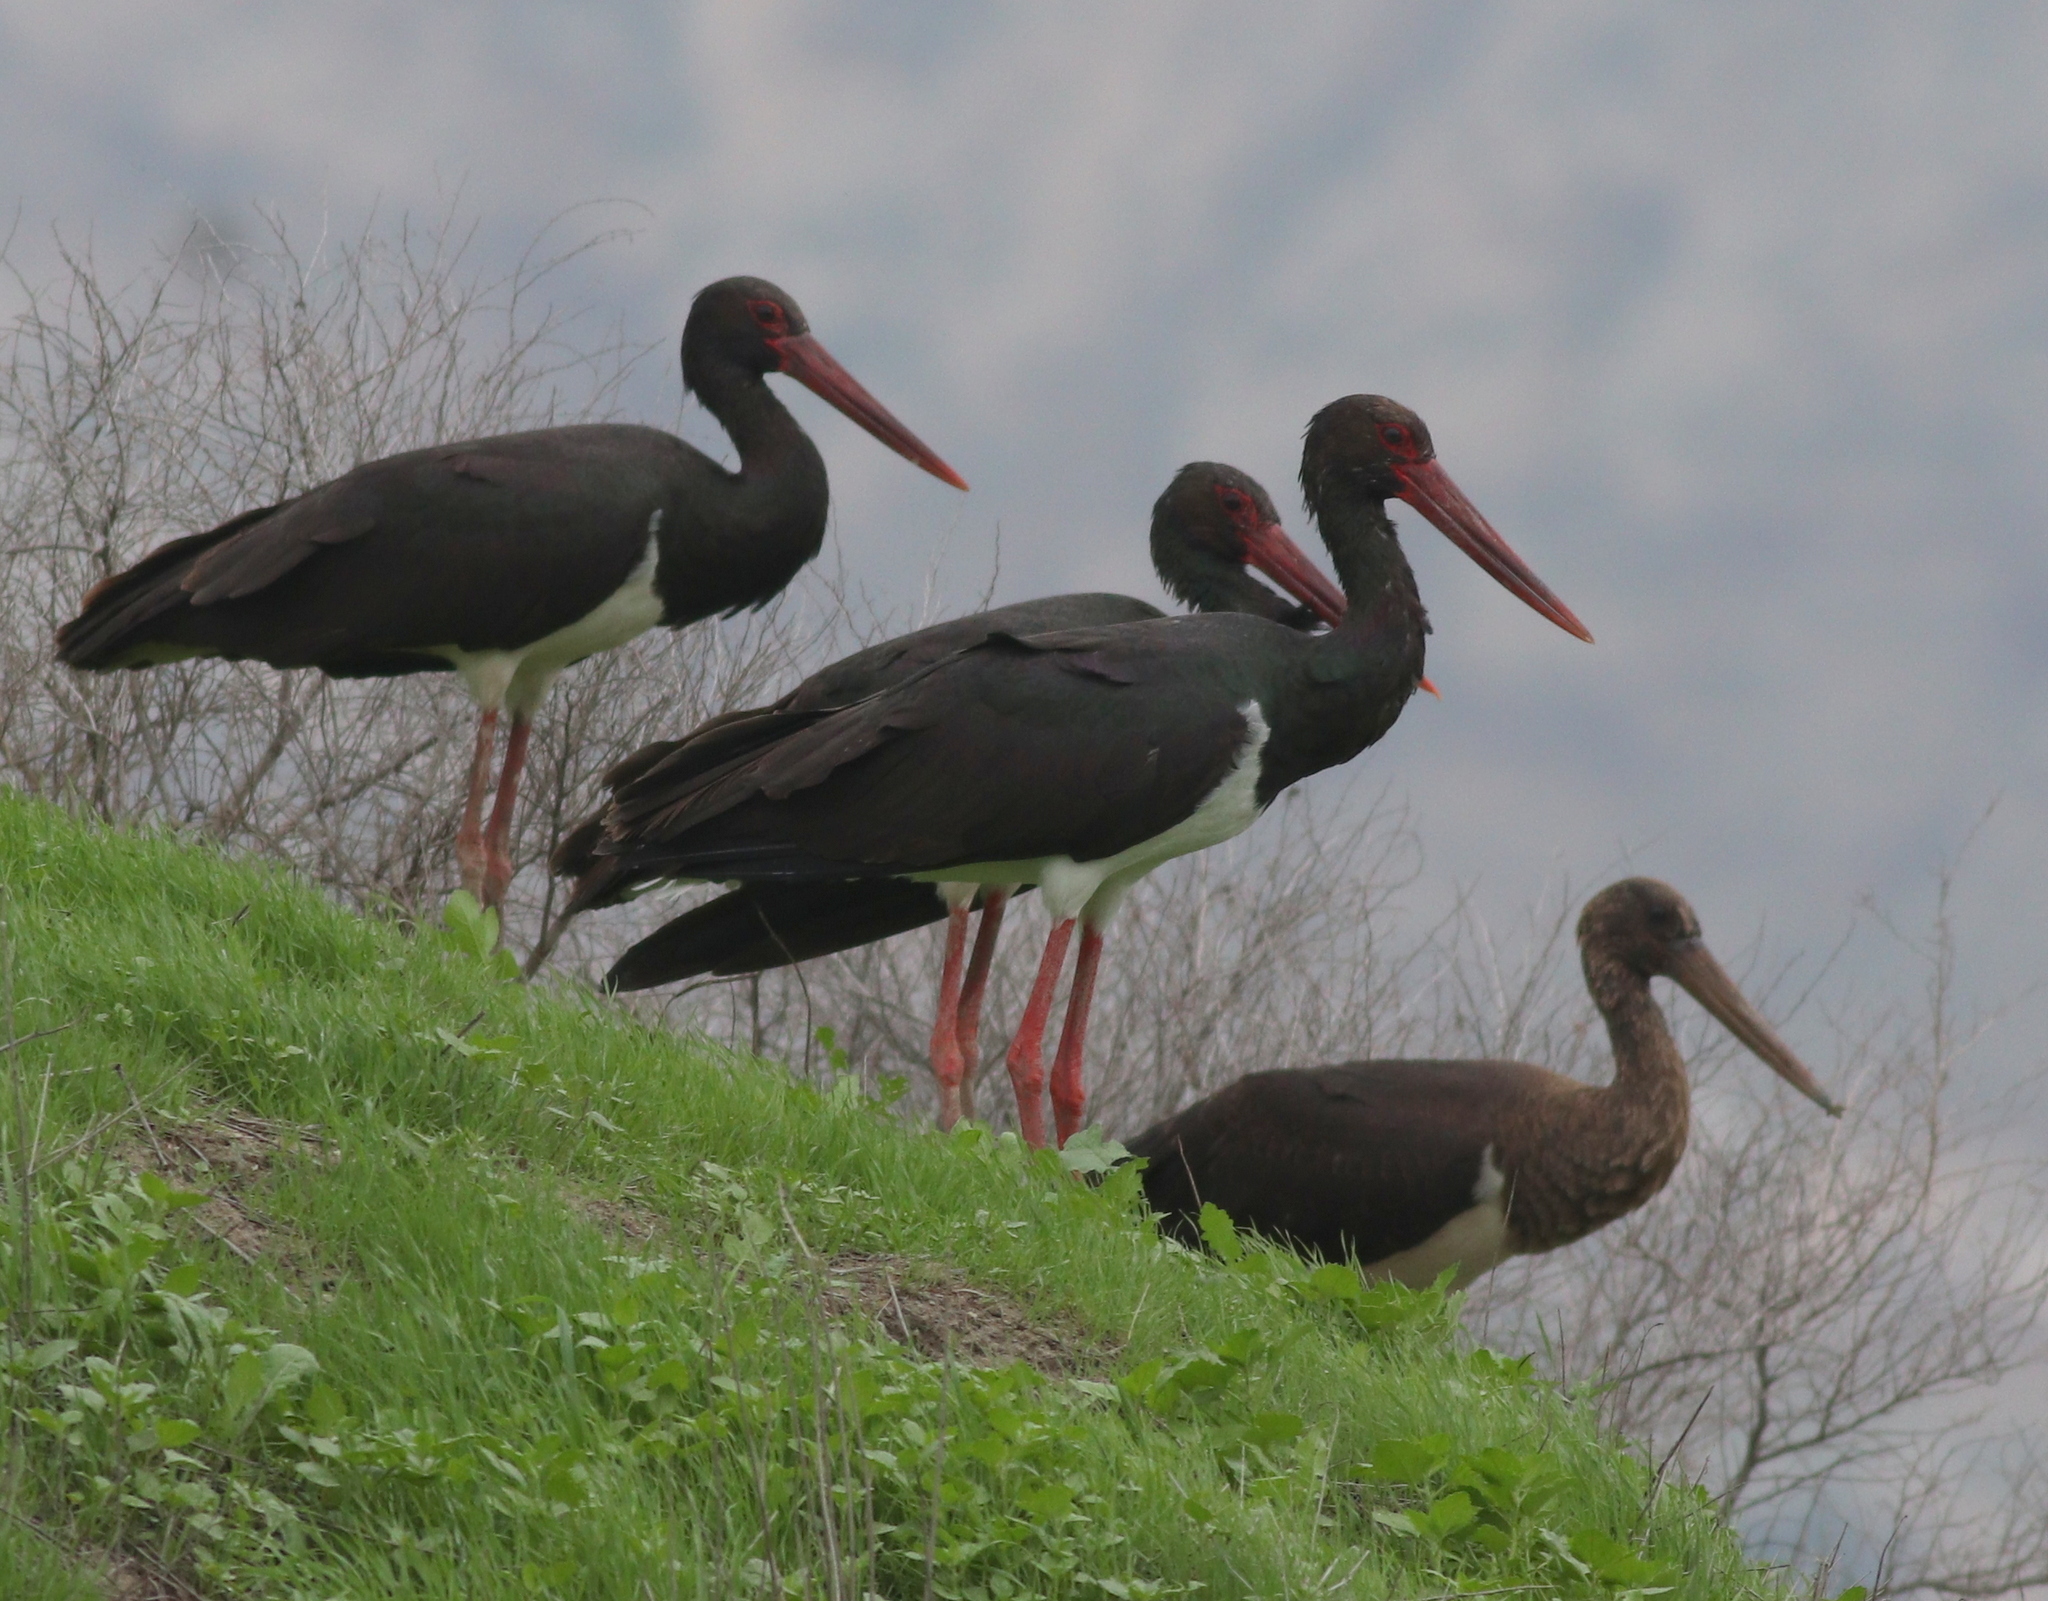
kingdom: Animalia
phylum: Chordata
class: Aves
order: Ciconiiformes
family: Ciconiidae
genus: Ciconia
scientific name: Ciconia nigra
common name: Black stork
